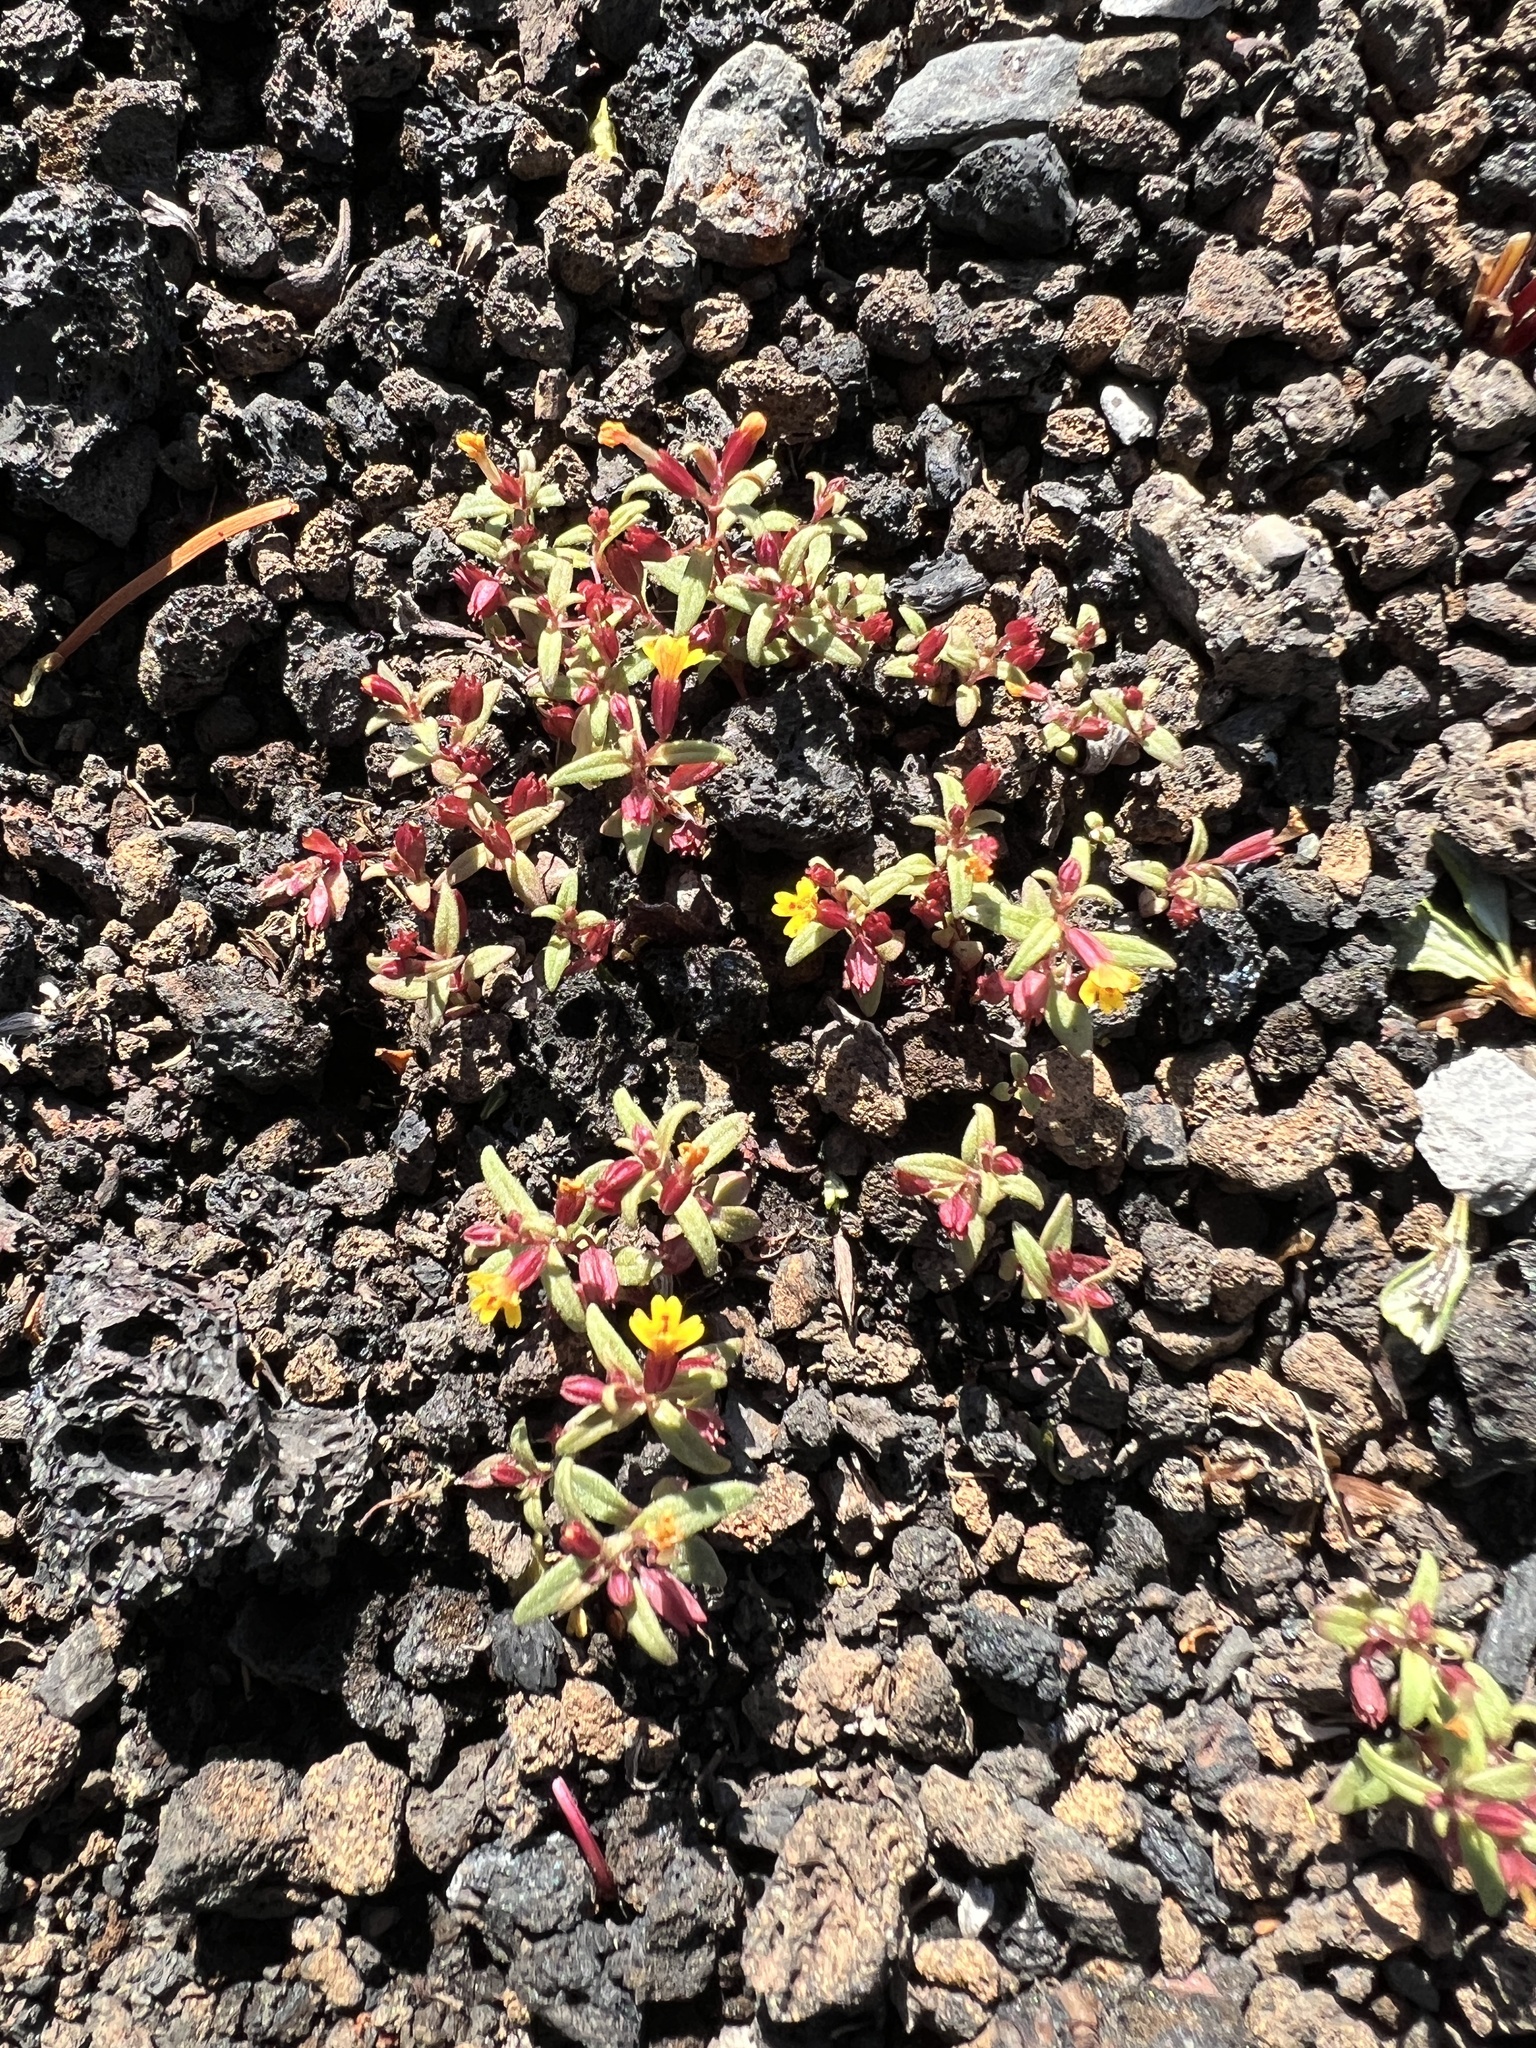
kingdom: Plantae
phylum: Tracheophyta
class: Magnoliopsida
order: Lamiales
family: Phrymaceae
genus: Erythranthe
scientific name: Erythranthe suksdorfii
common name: Suksdorf's monkeyflower
